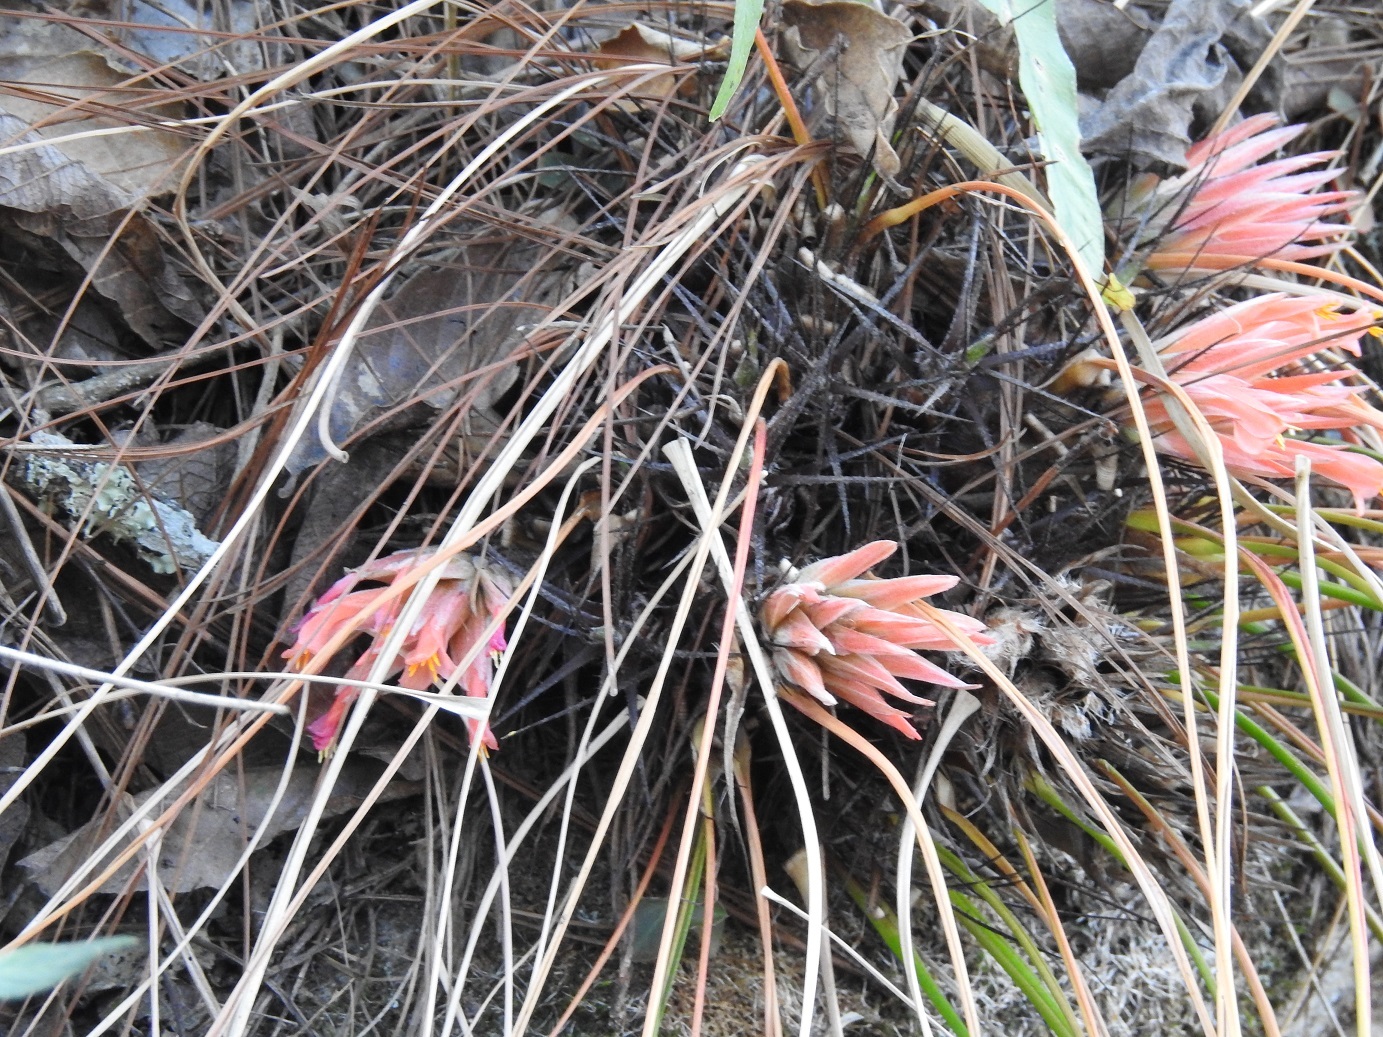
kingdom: Plantae
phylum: Tracheophyta
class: Liliopsida
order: Poales
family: Bromeliaceae
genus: Pitcairnia
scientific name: Pitcairnia heterophylla
